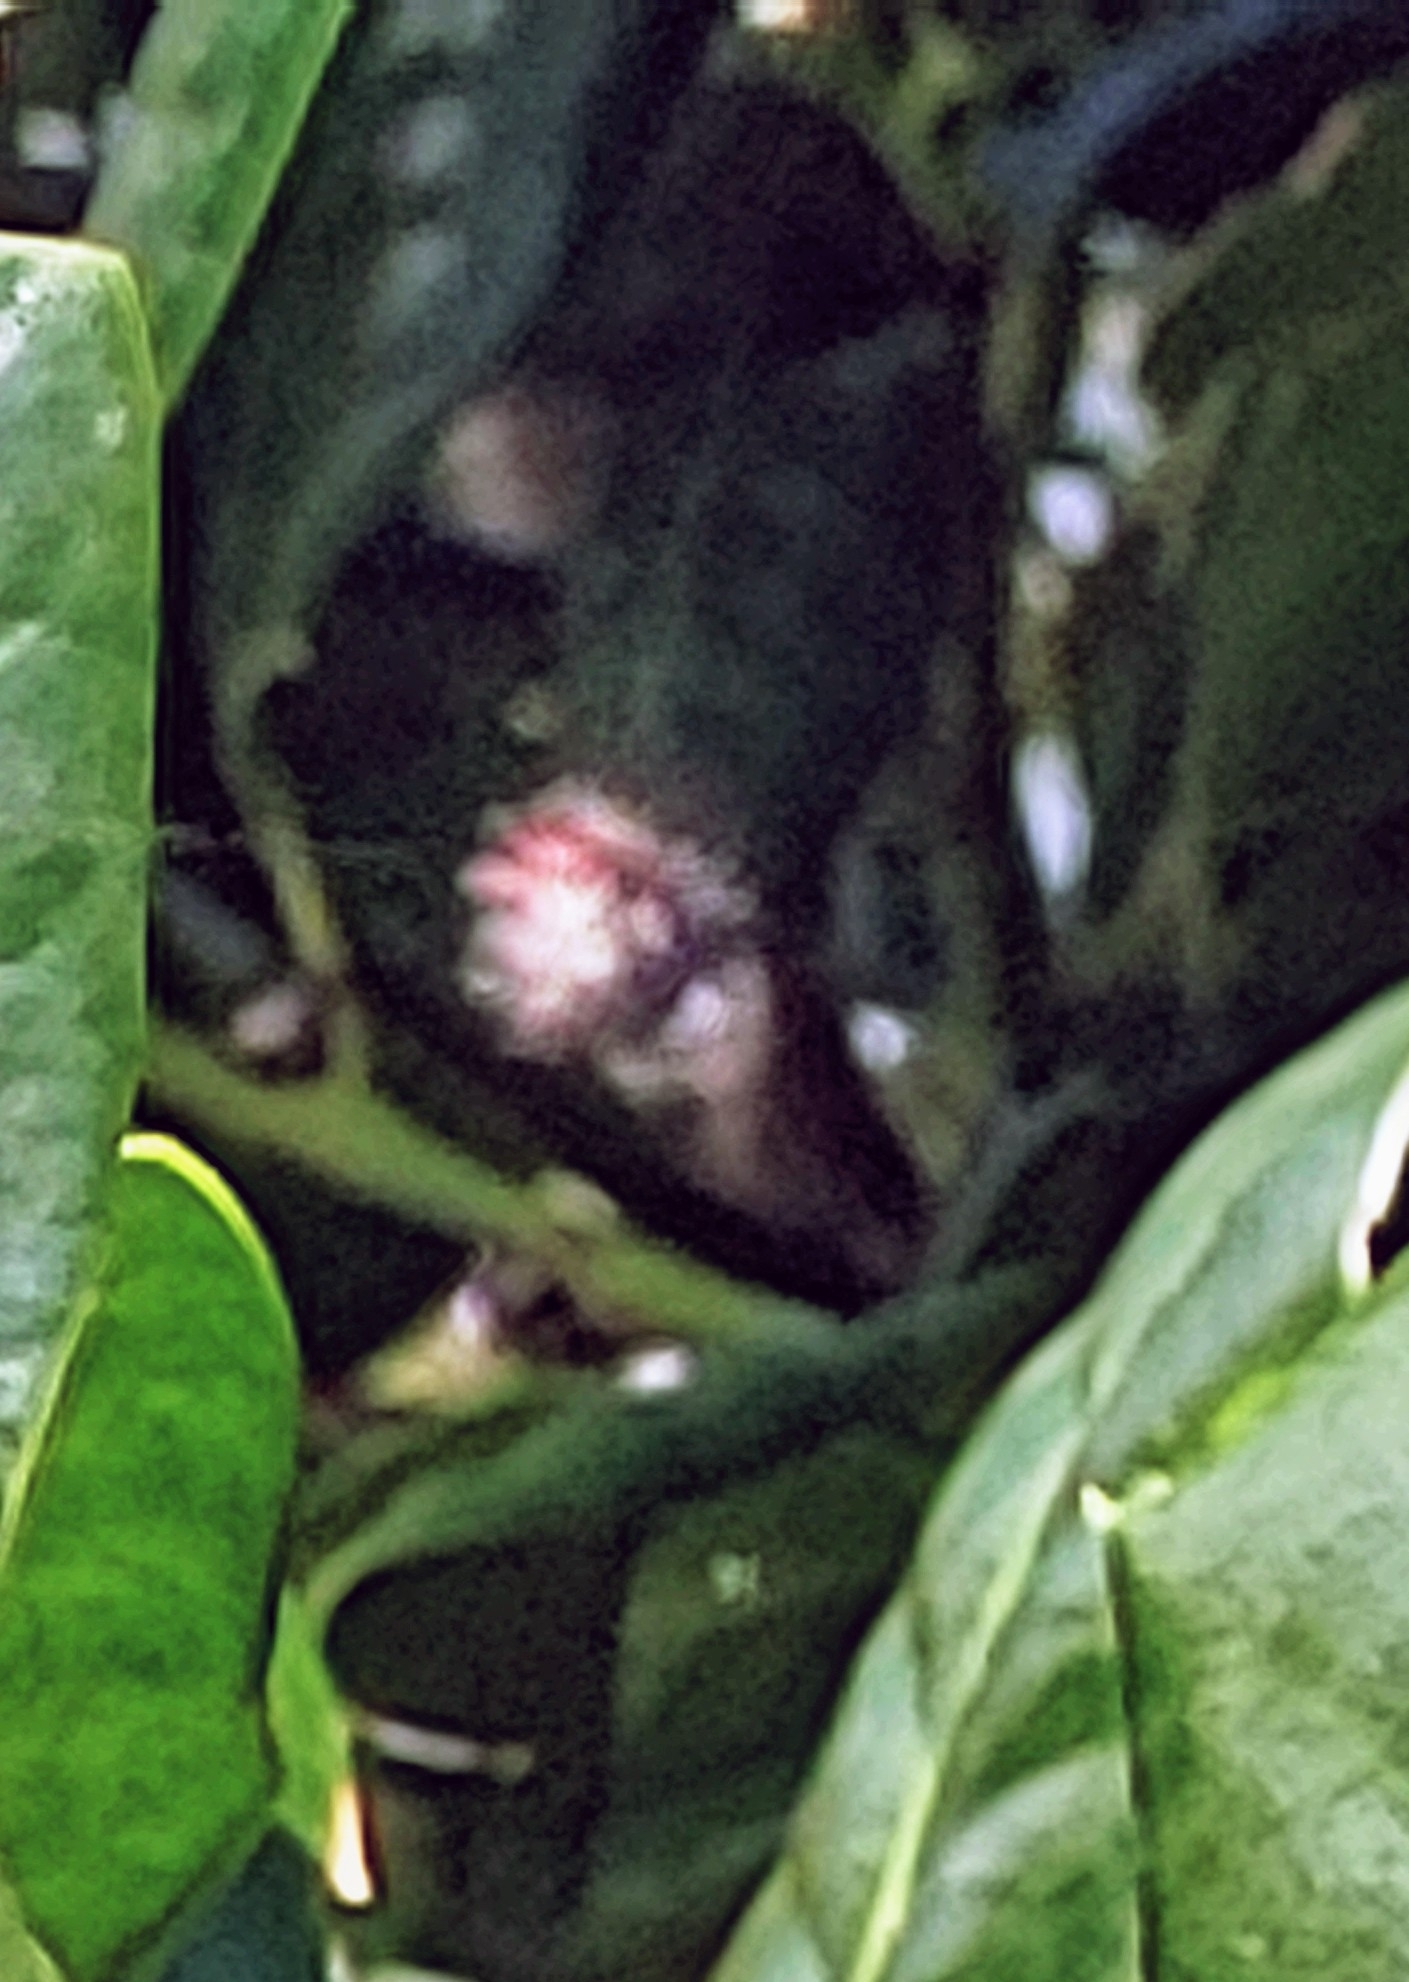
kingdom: Animalia
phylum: Arthropoda
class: Arachnida
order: Araneae
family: Araneidae
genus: Gasteracantha
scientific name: Gasteracantha cancriformis
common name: Orb weavers
